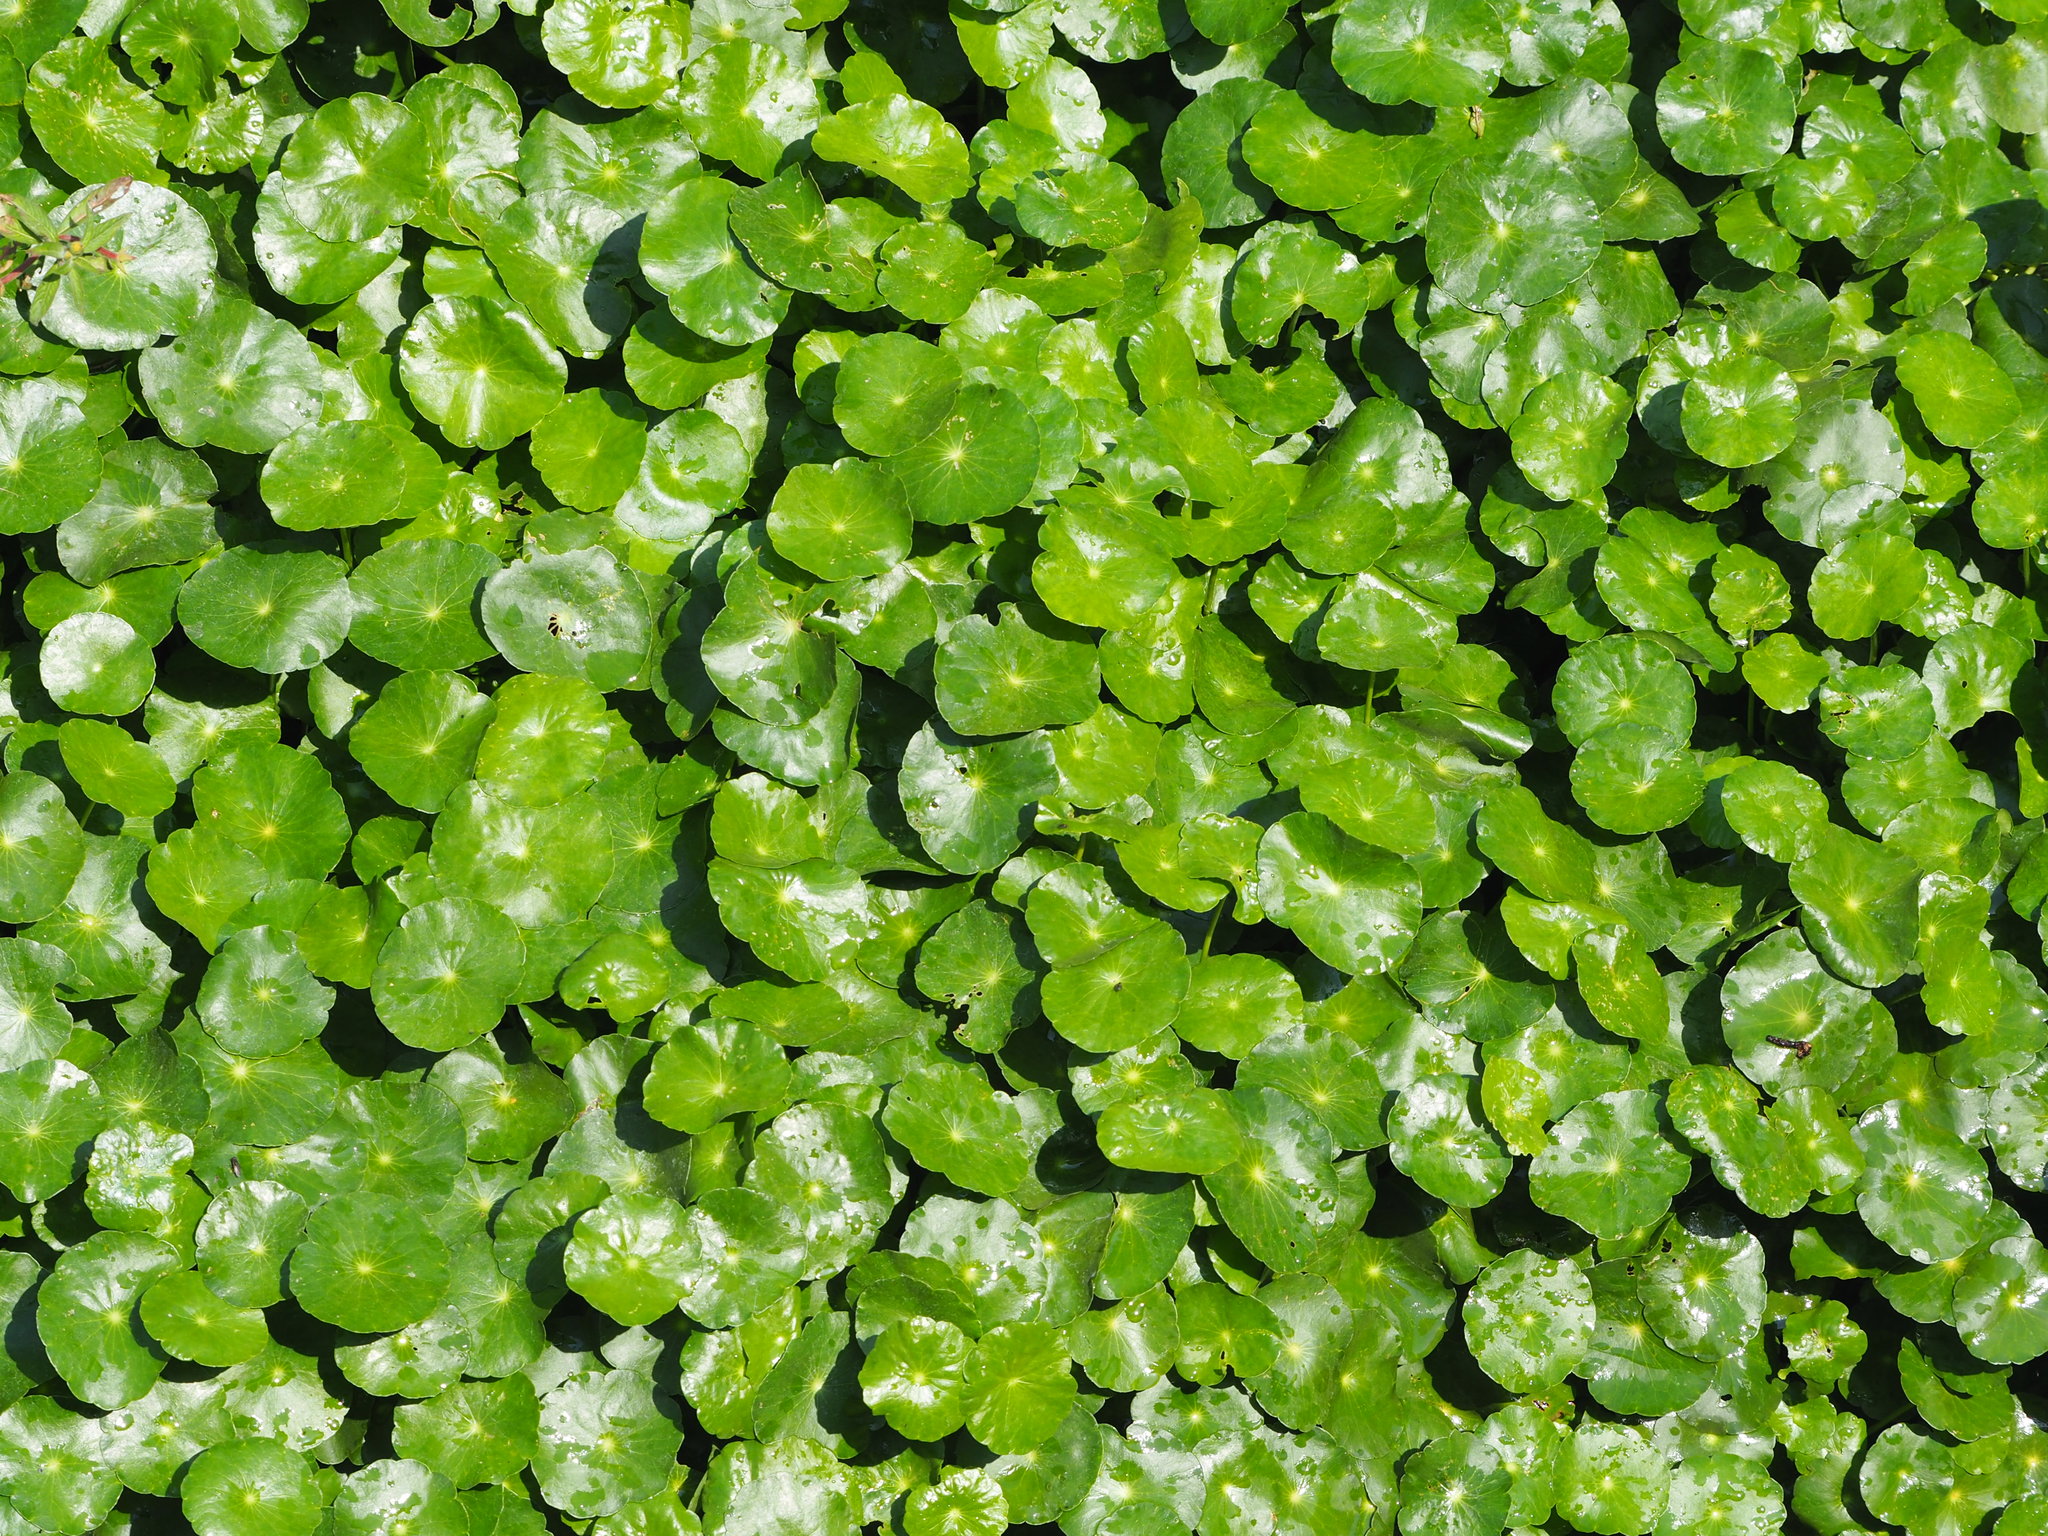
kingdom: Plantae
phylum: Tracheophyta
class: Magnoliopsida
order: Apiales
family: Araliaceae
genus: Hydrocotyle
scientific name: Hydrocotyle verticillata
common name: Whorled marshpennywort
